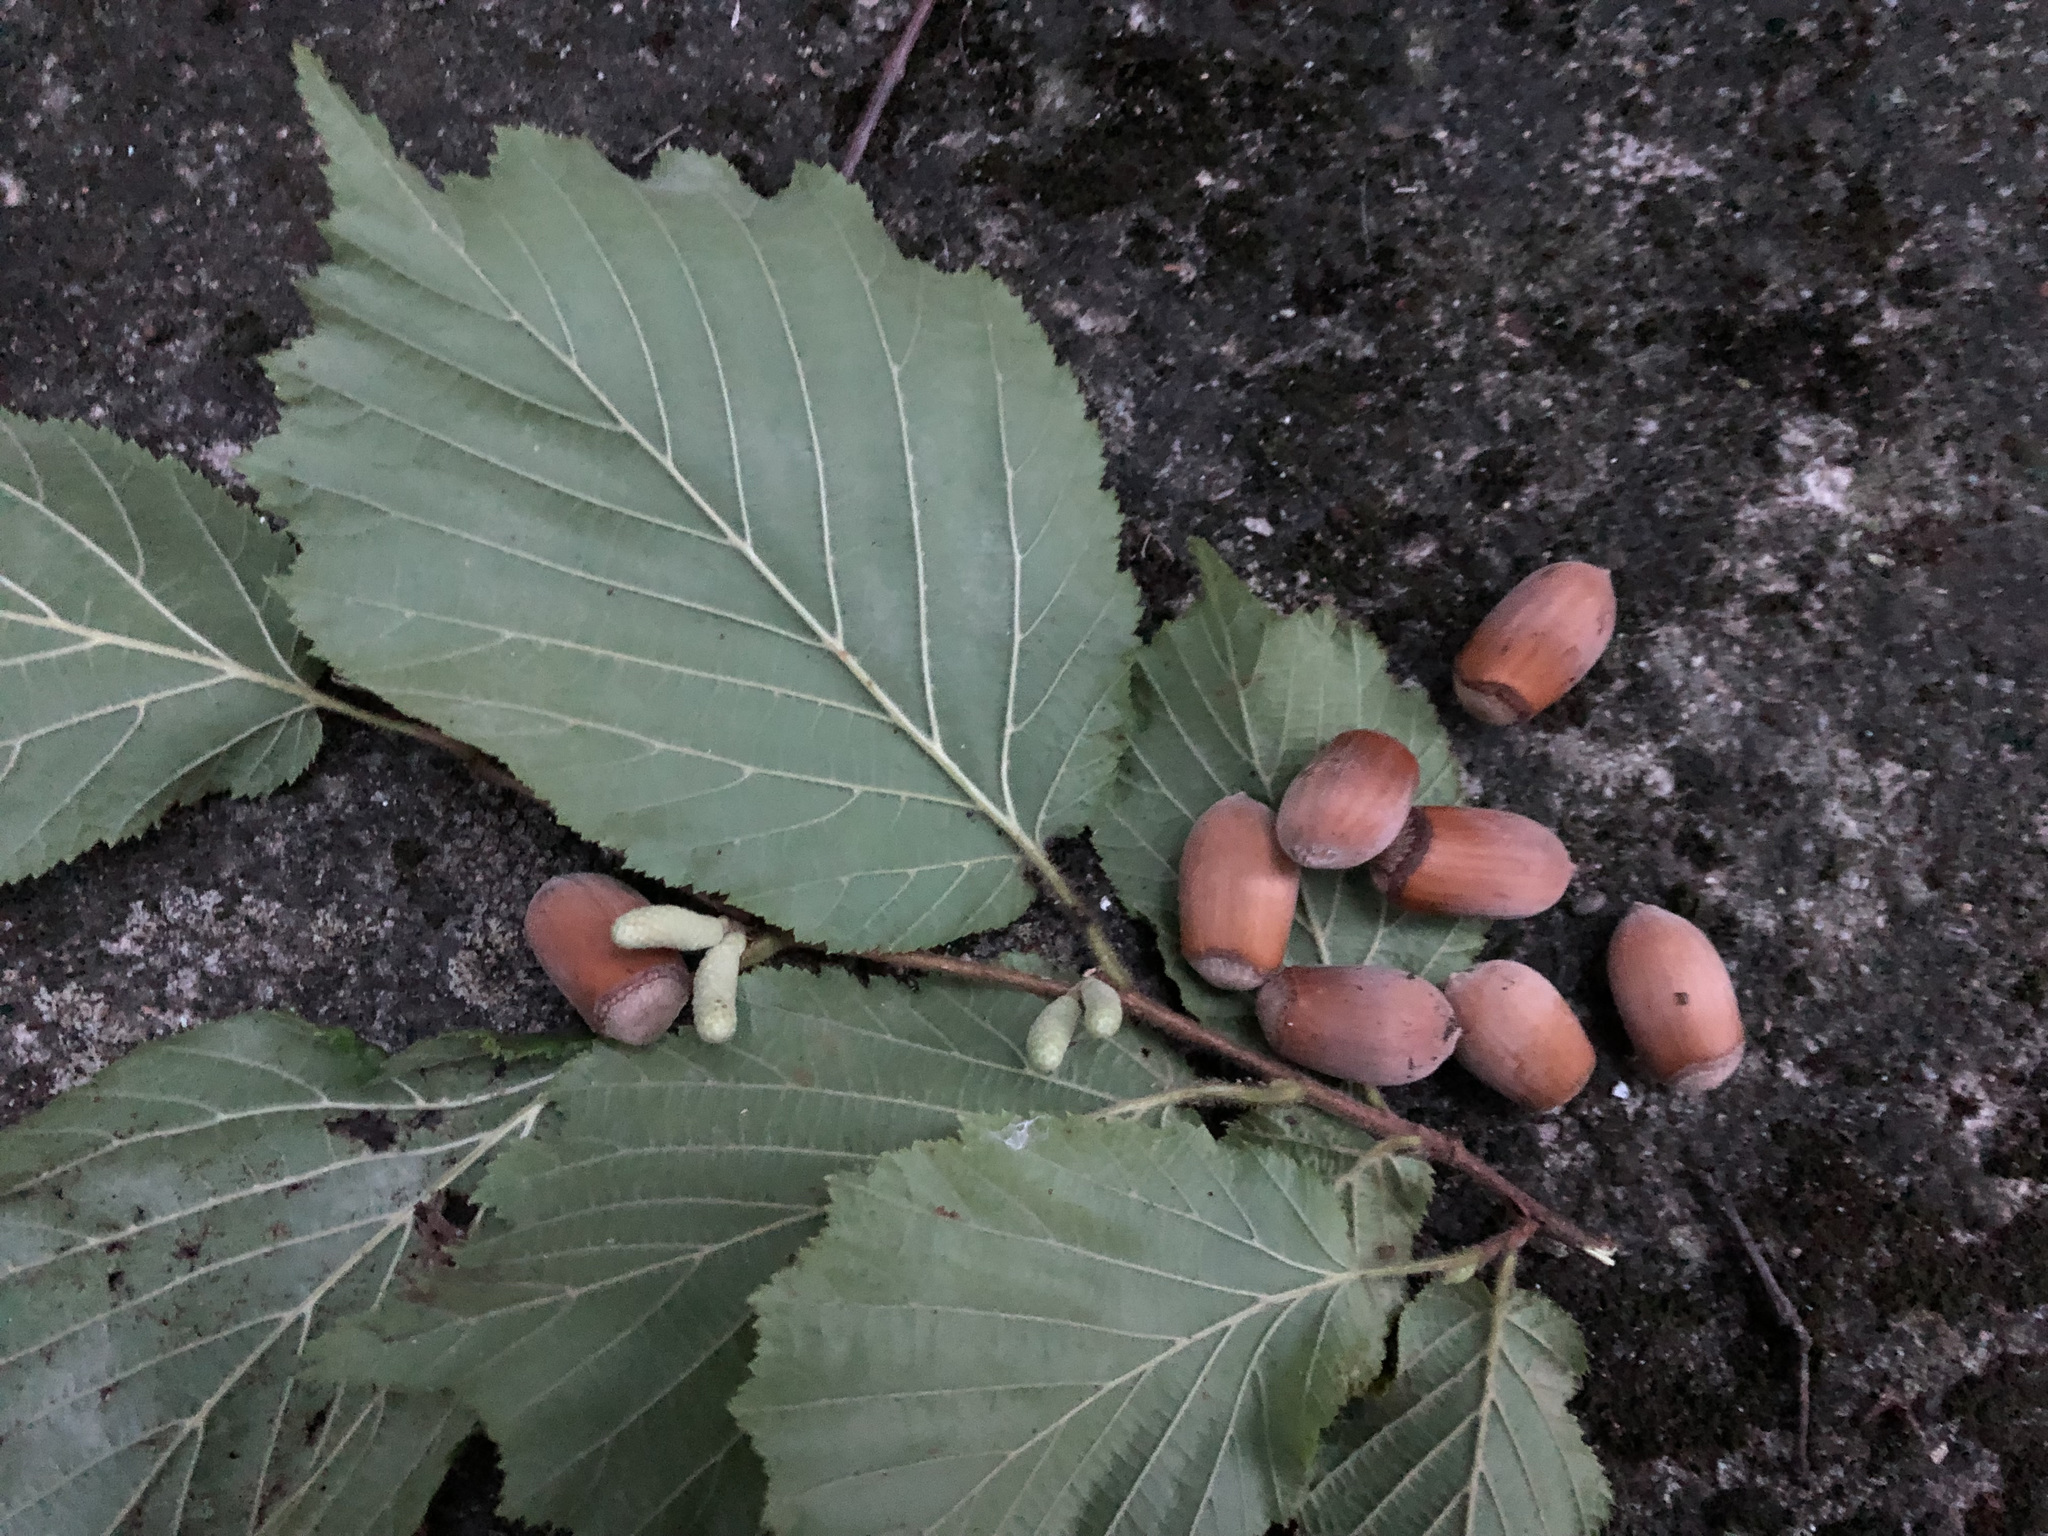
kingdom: Plantae
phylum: Tracheophyta
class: Magnoliopsida
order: Fagales
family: Betulaceae
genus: Corylus
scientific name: Corylus avellana
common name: European hazel
